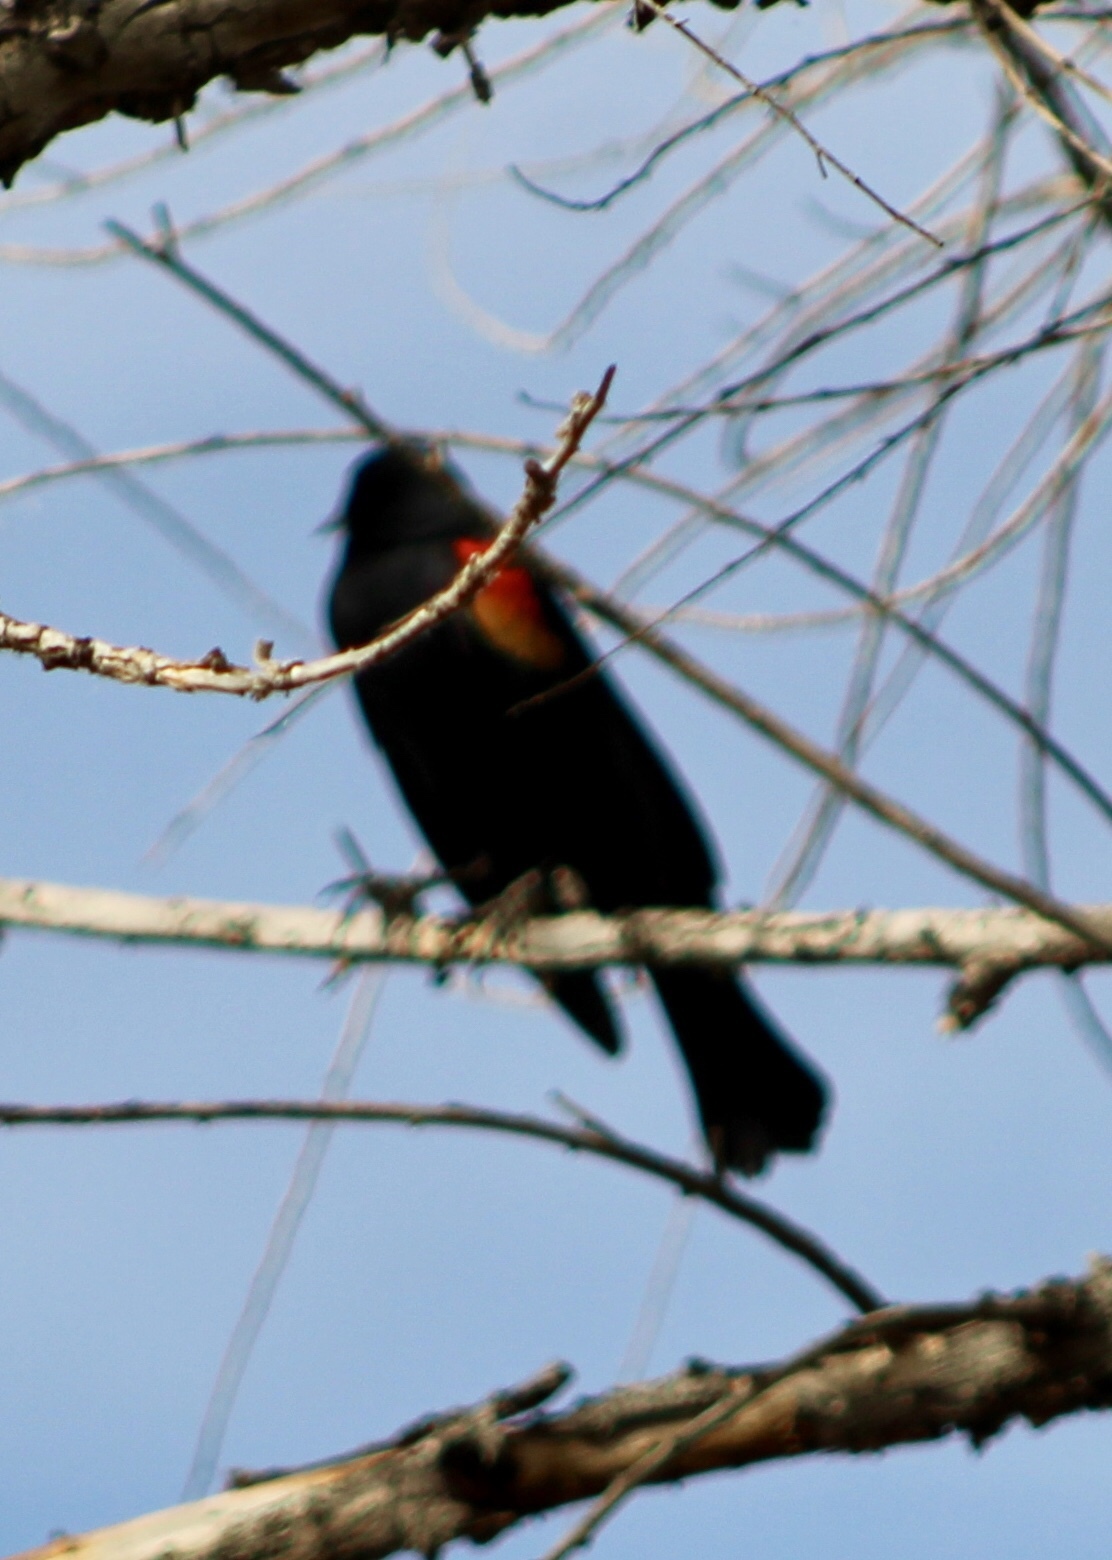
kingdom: Animalia
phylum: Chordata
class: Aves
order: Passeriformes
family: Icteridae
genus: Agelaius
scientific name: Agelaius phoeniceus
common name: Red-winged blackbird
